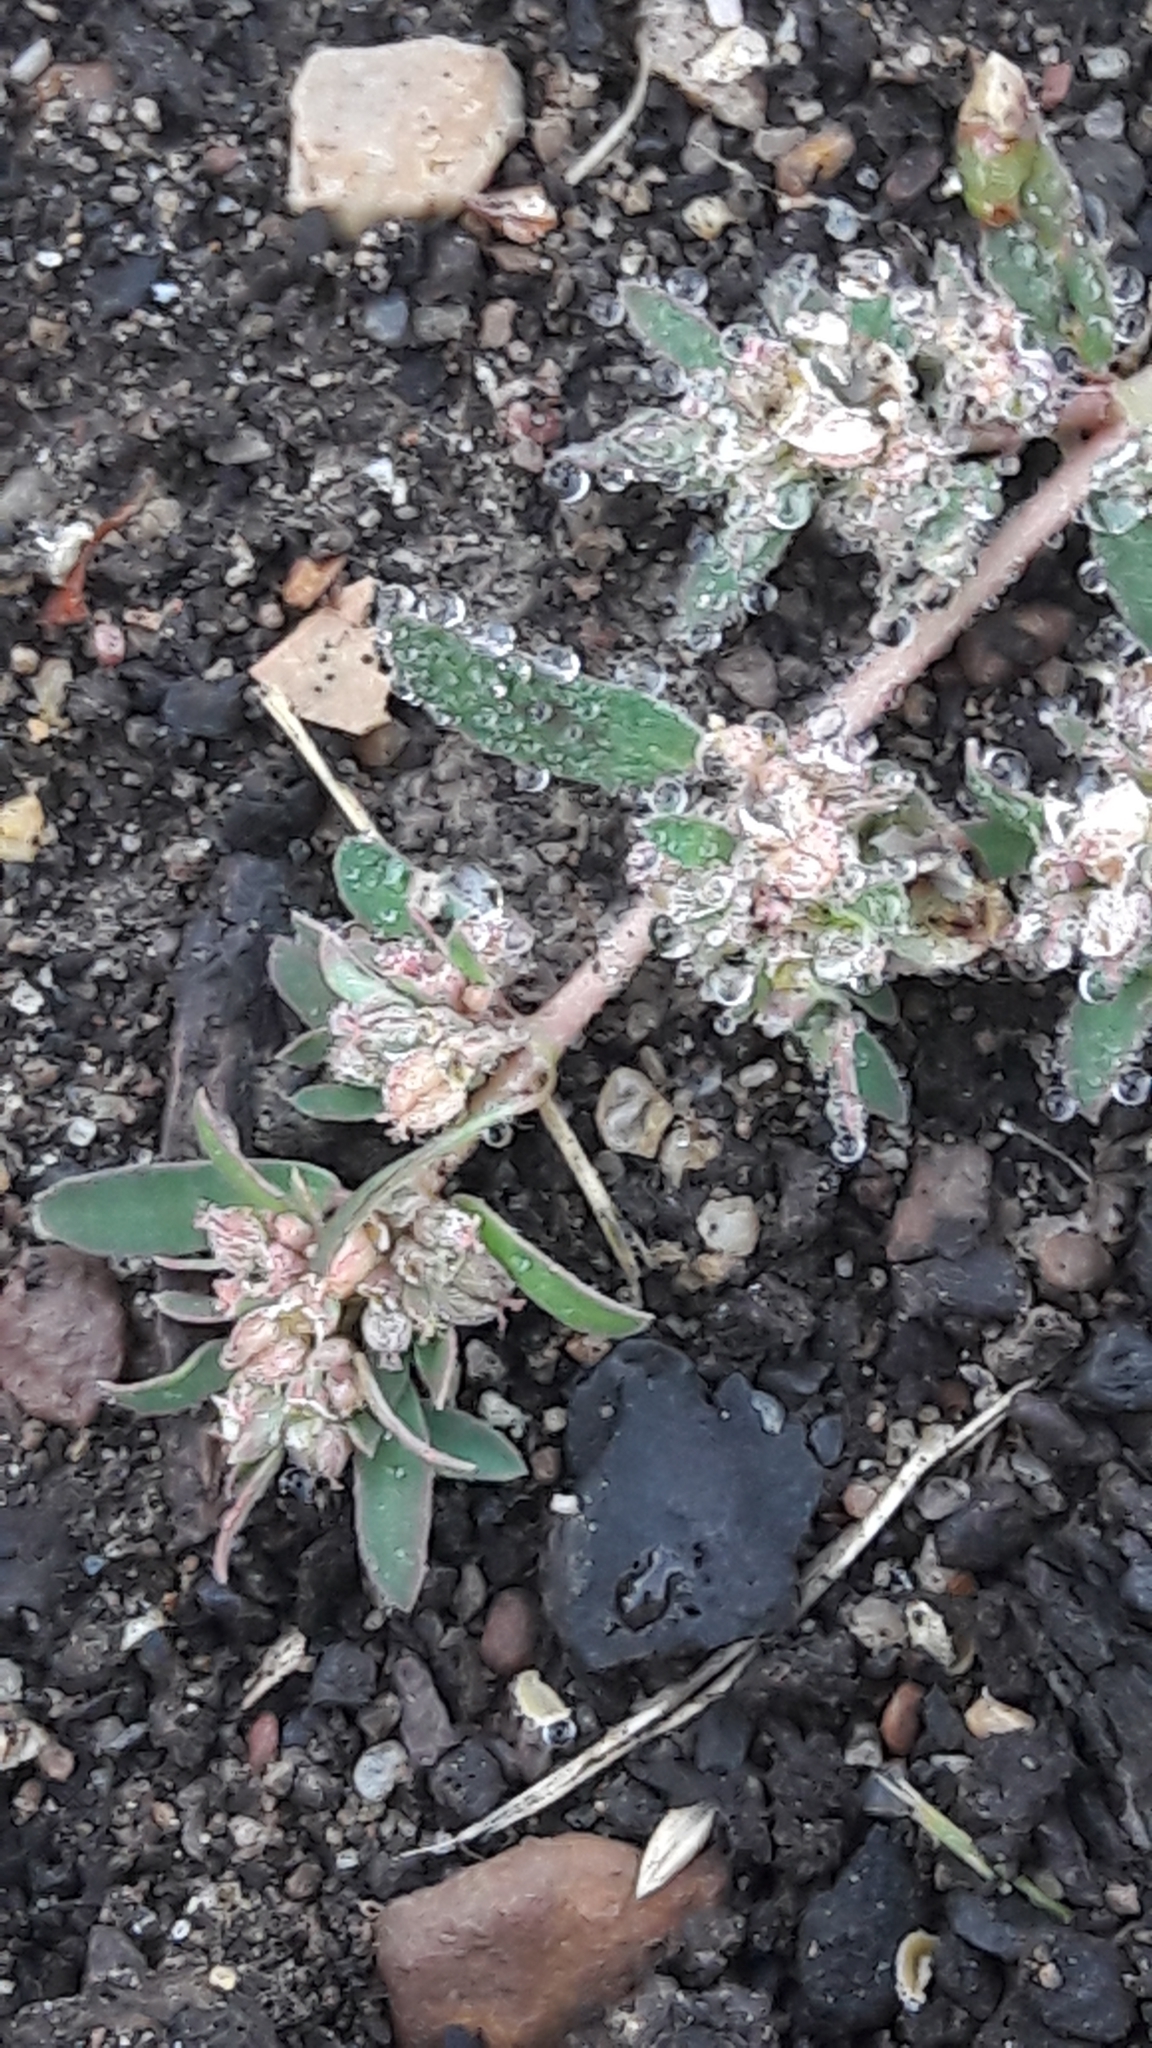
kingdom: Plantae
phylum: Tracheophyta
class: Magnoliopsida
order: Malpighiales
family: Euphorbiaceae
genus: Euphorbia
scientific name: Euphorbia maculata
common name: Spotted spurge
